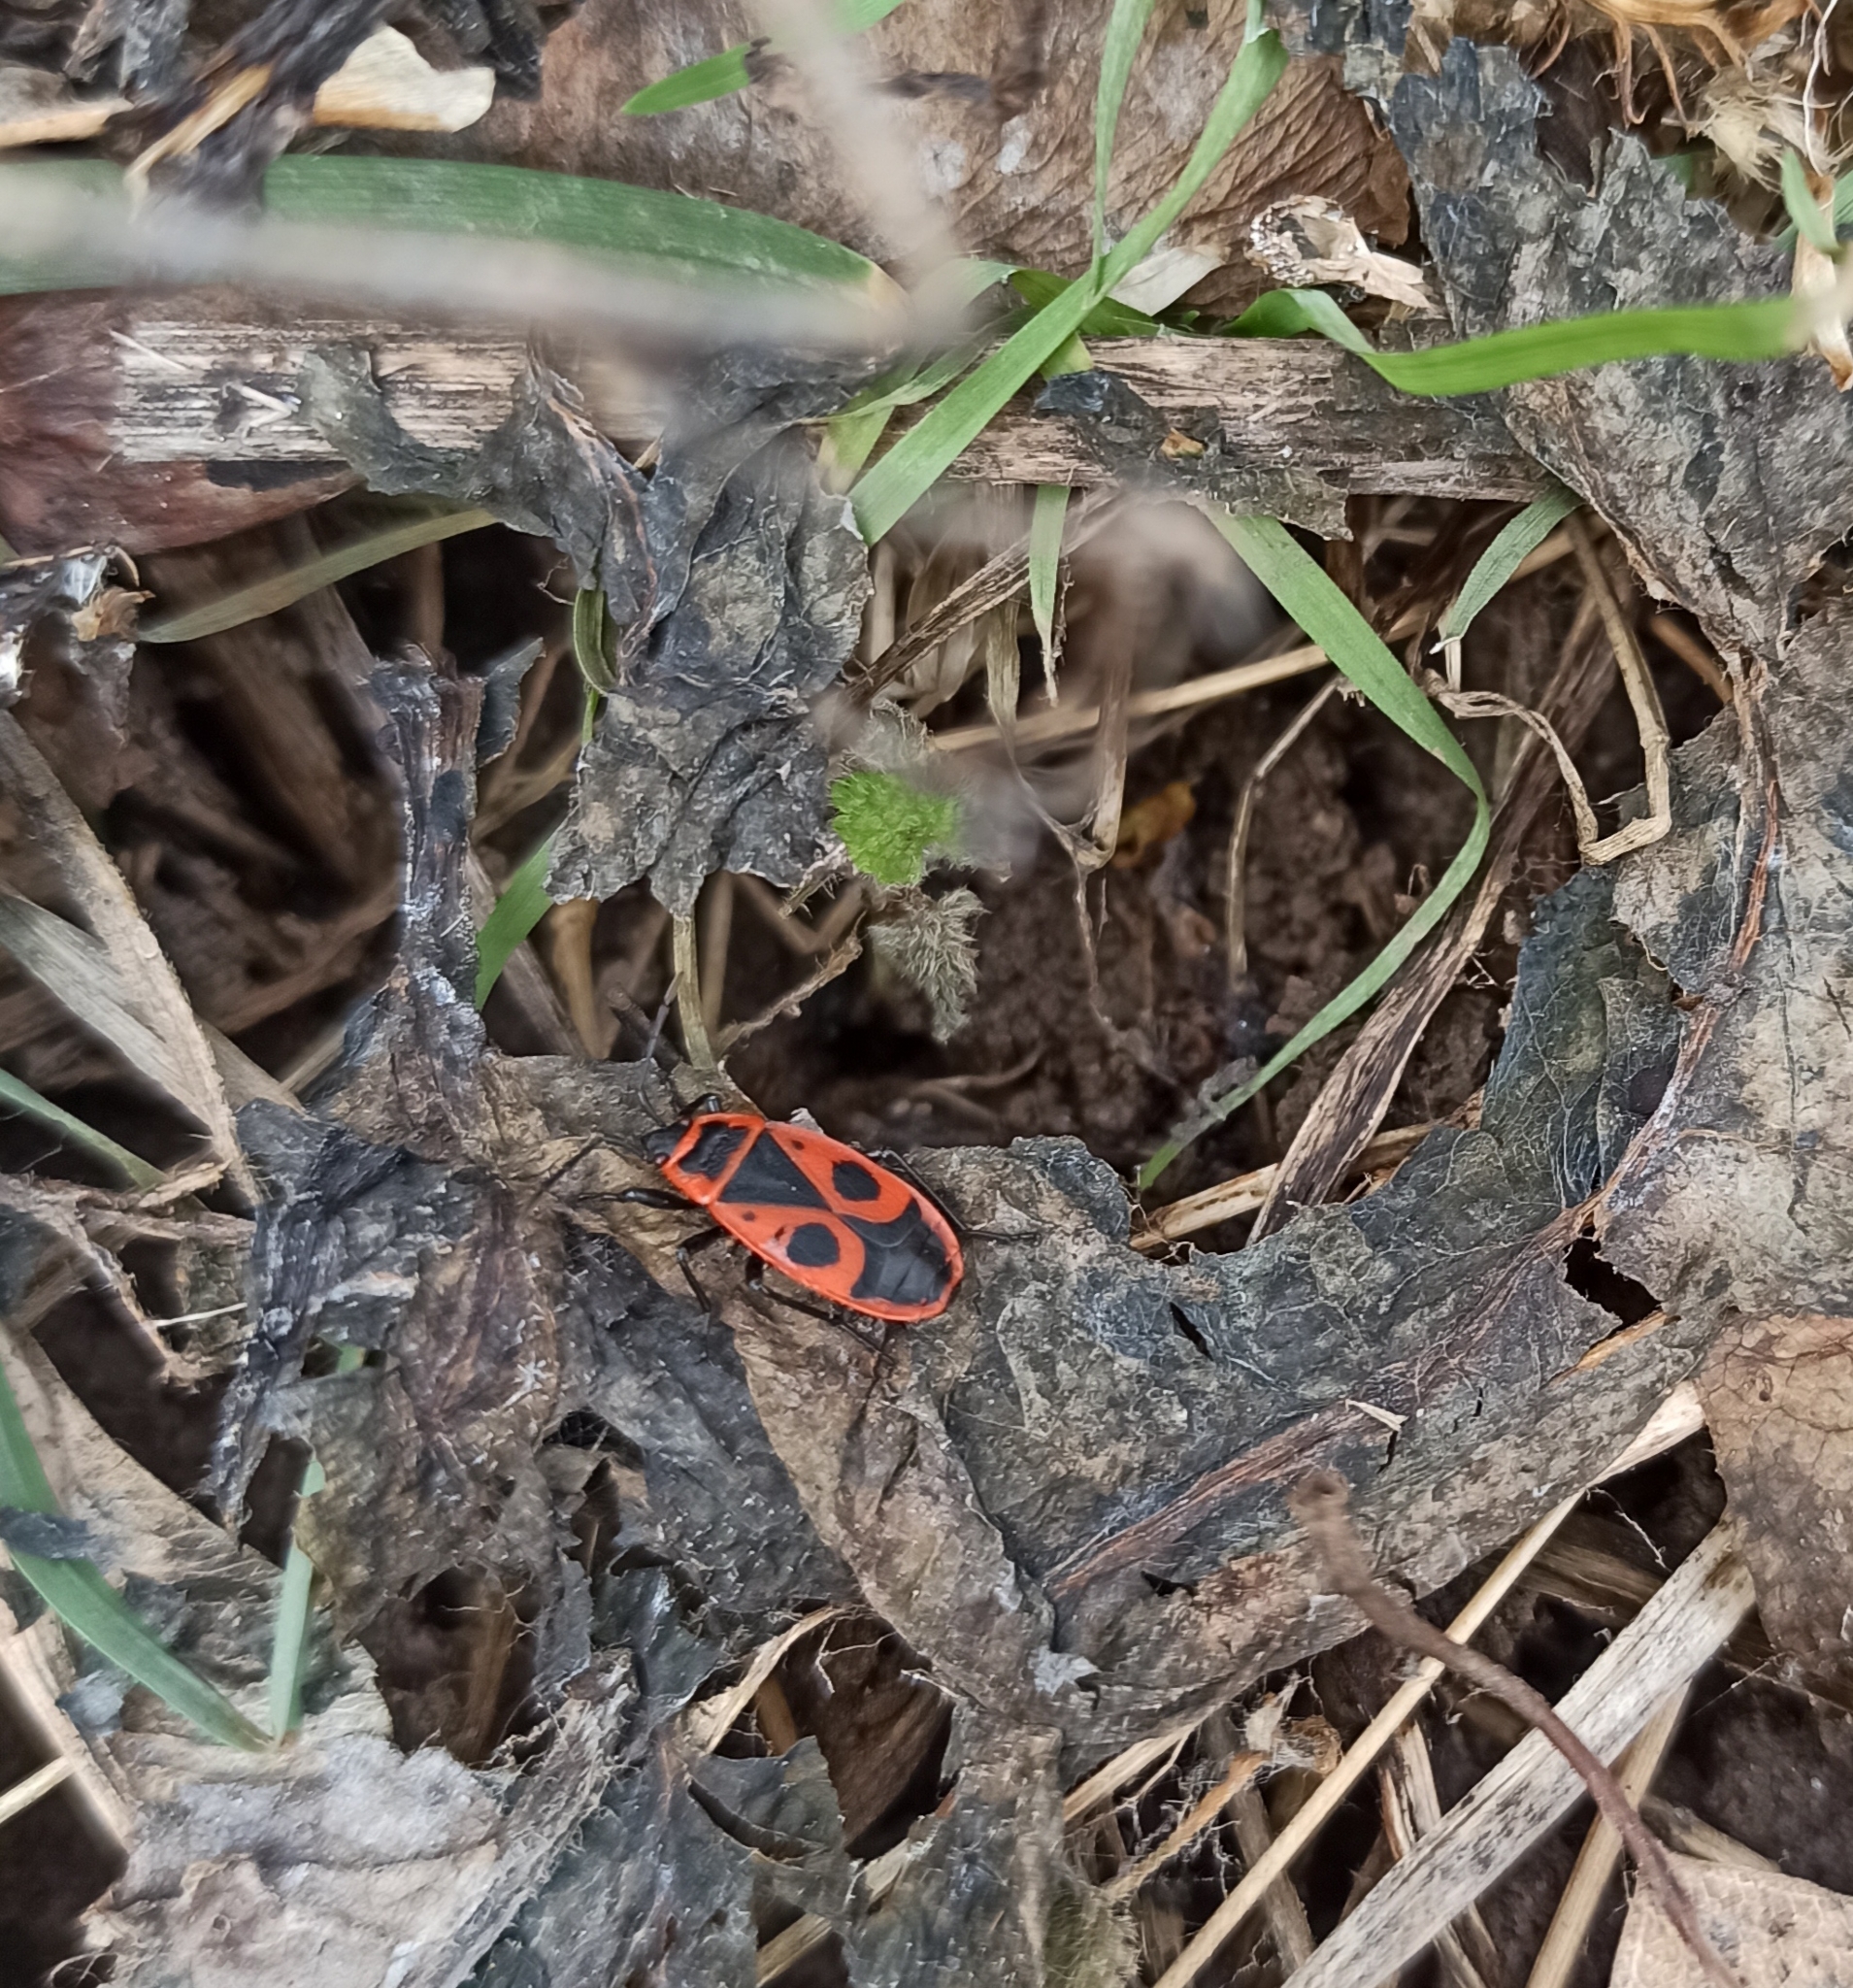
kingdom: Animalia
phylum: Arthropoda
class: Insecta
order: Hemiptera
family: Pyrrhocoridae
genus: Pyrrhocoris
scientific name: Pyrrhocoris apterus
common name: Firebug
